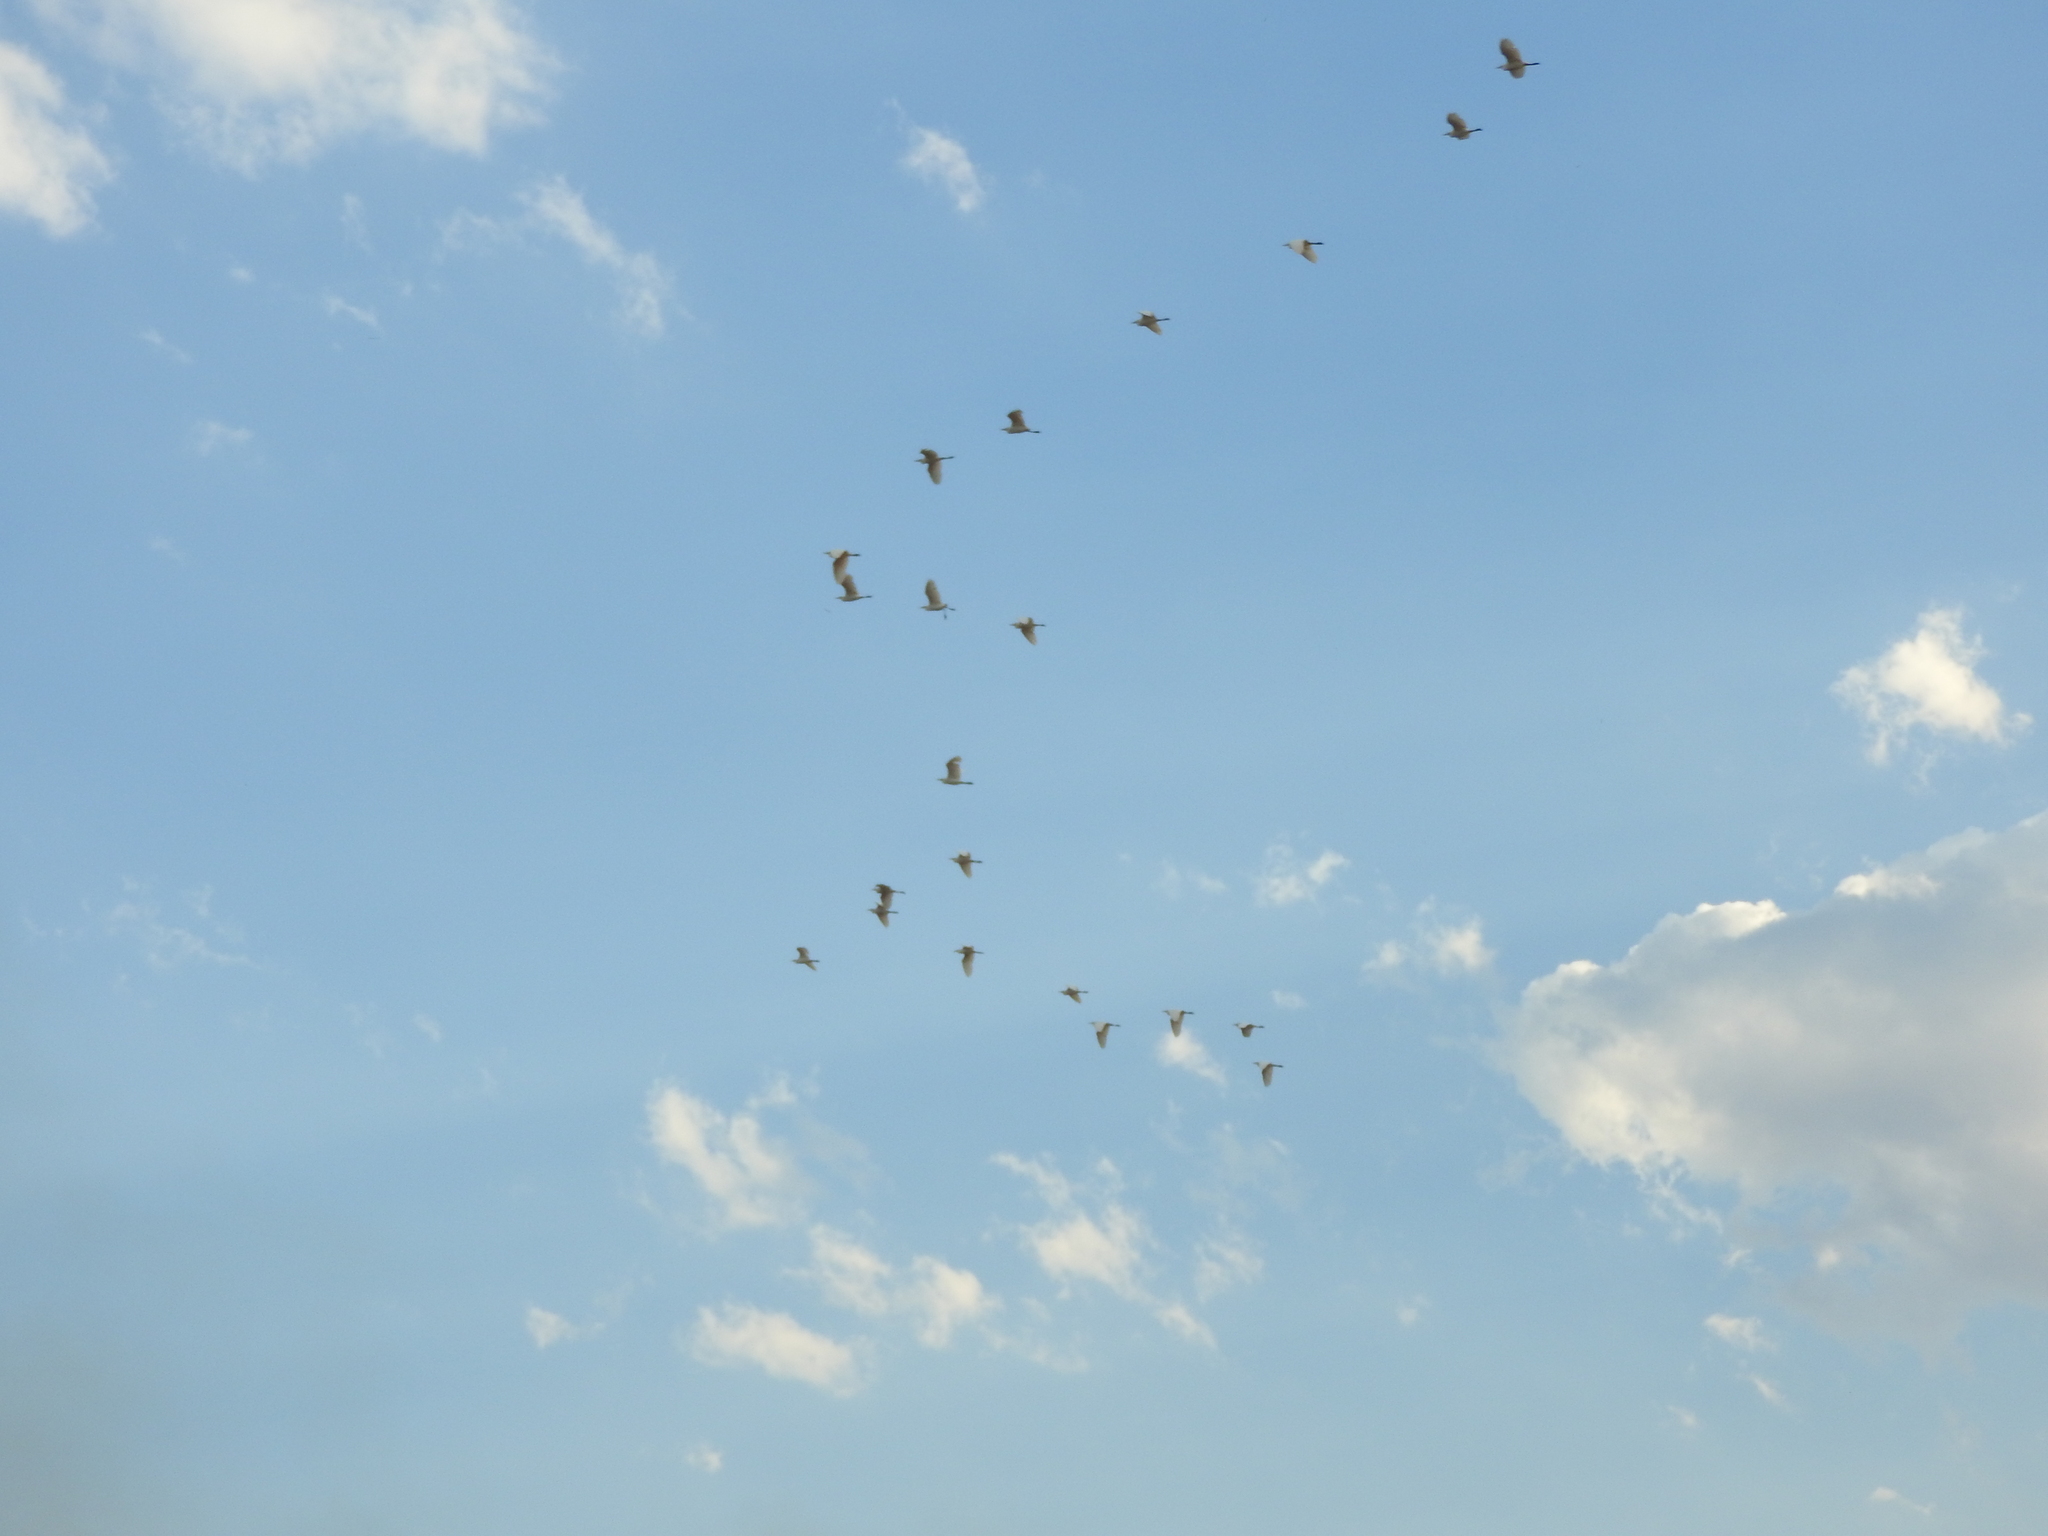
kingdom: Animalia
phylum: Chordata
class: Aves
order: Pelecaniformes
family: Ardeidae
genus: Bubulcus
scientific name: Bubulcus ibis
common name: Cattle egret
